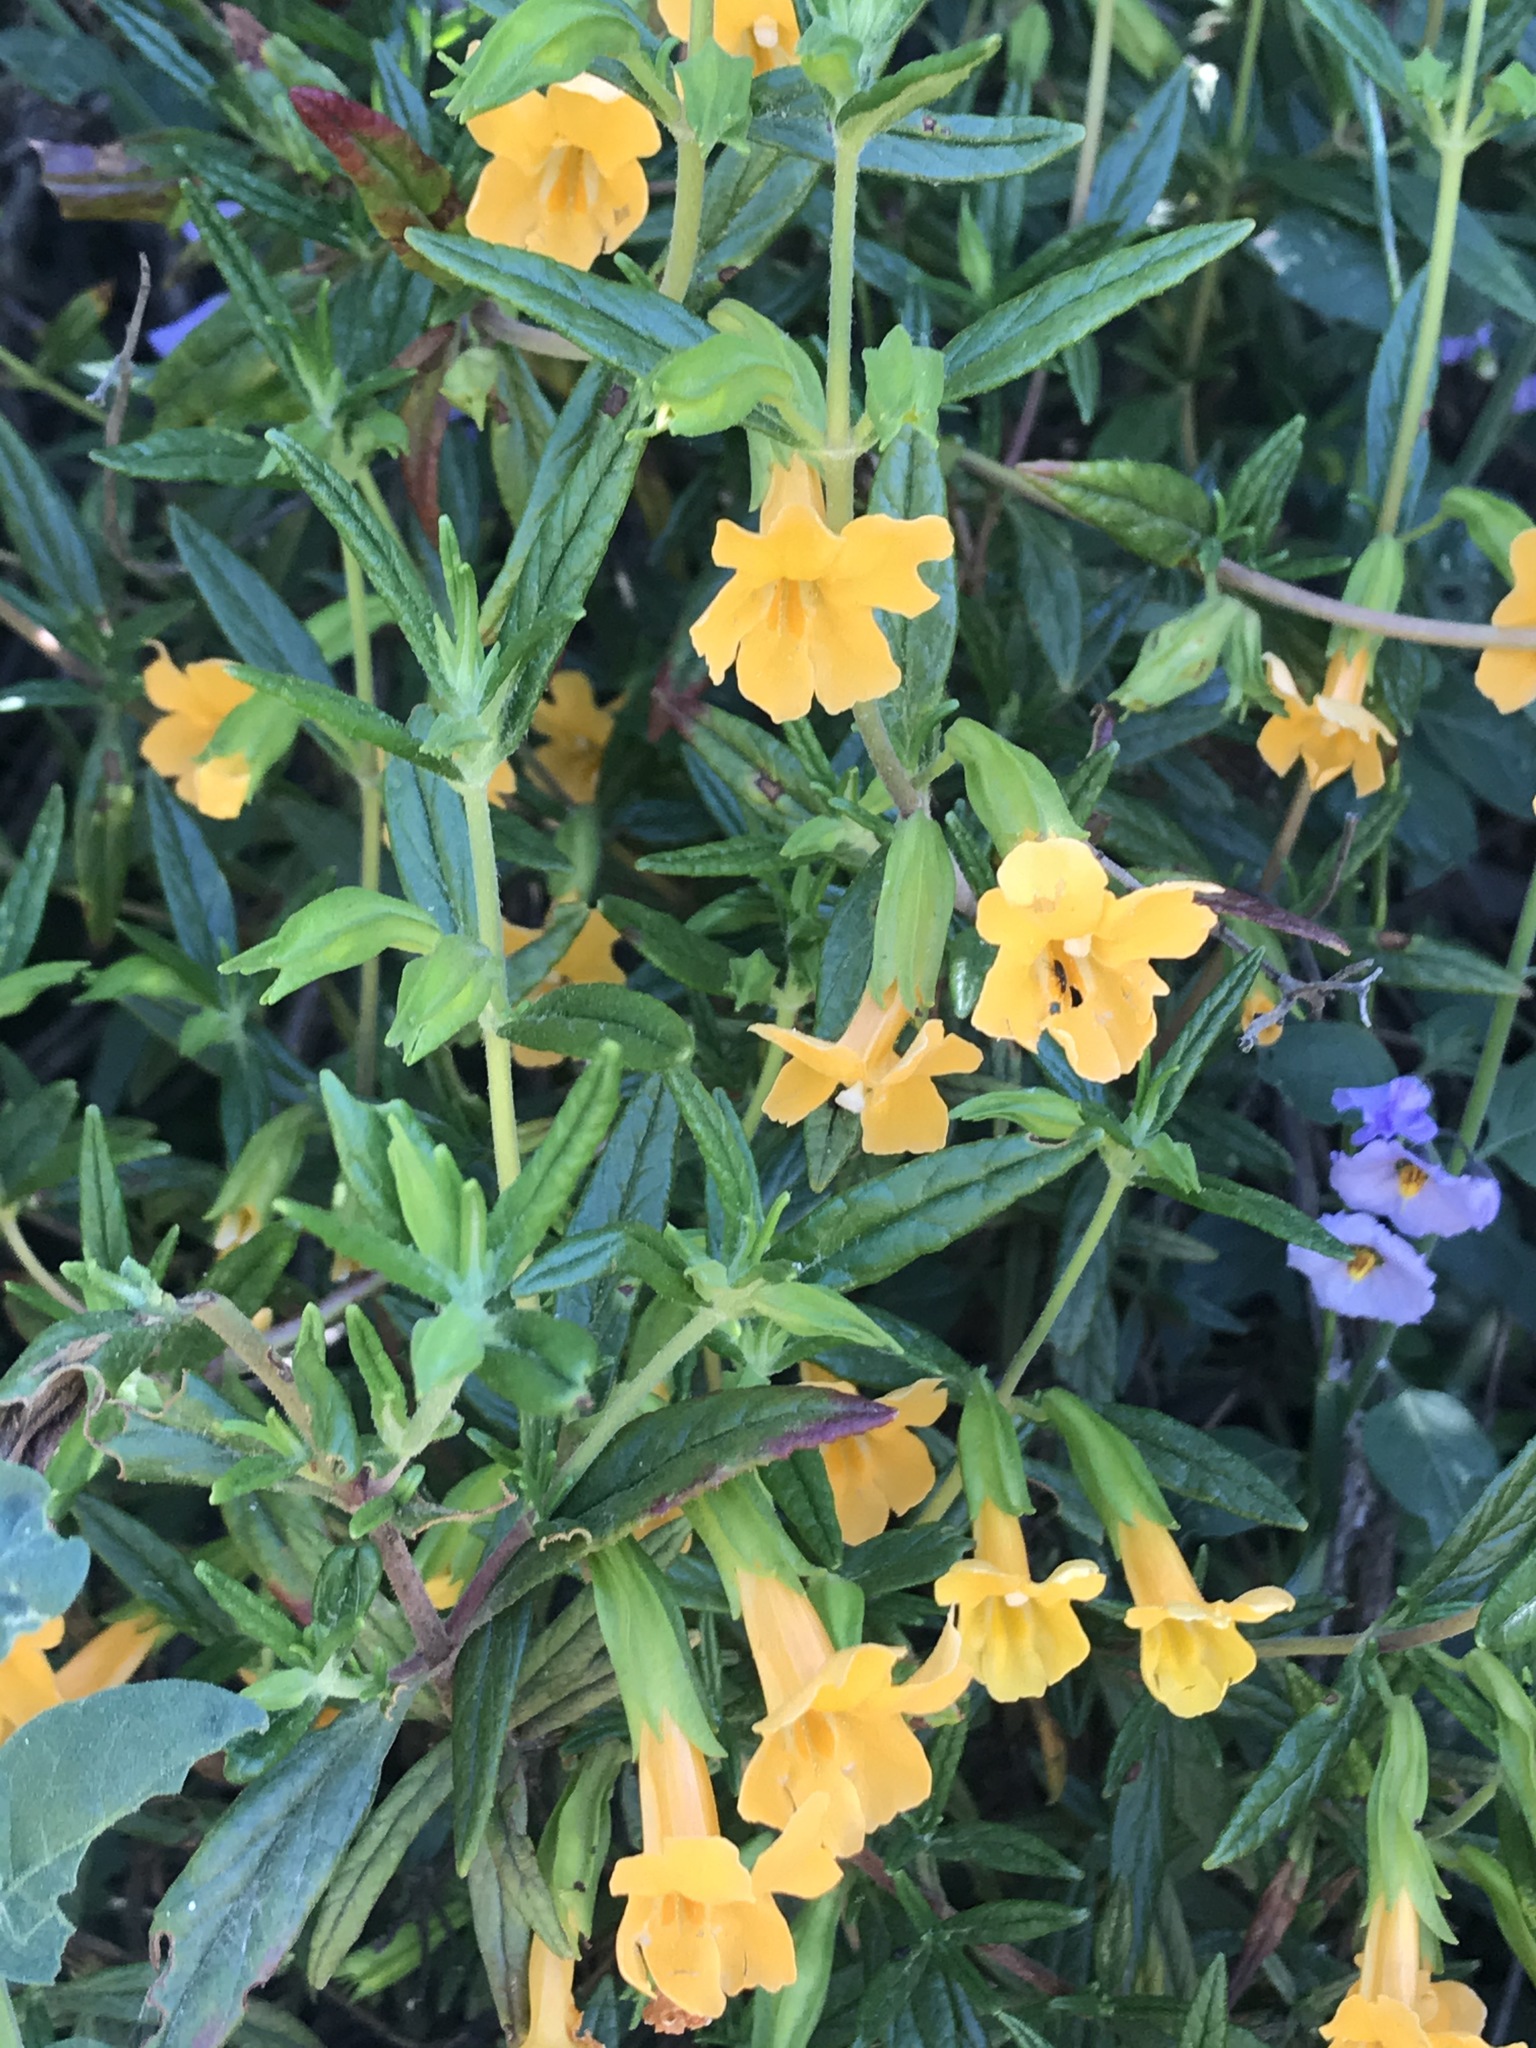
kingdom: Plantae
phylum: Tracheophyta
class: Magnoliopsida
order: Lamiales
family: Phrymaceae
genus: Diplacus
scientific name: Diplacus aurantiacus
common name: Bush monkey-flower
